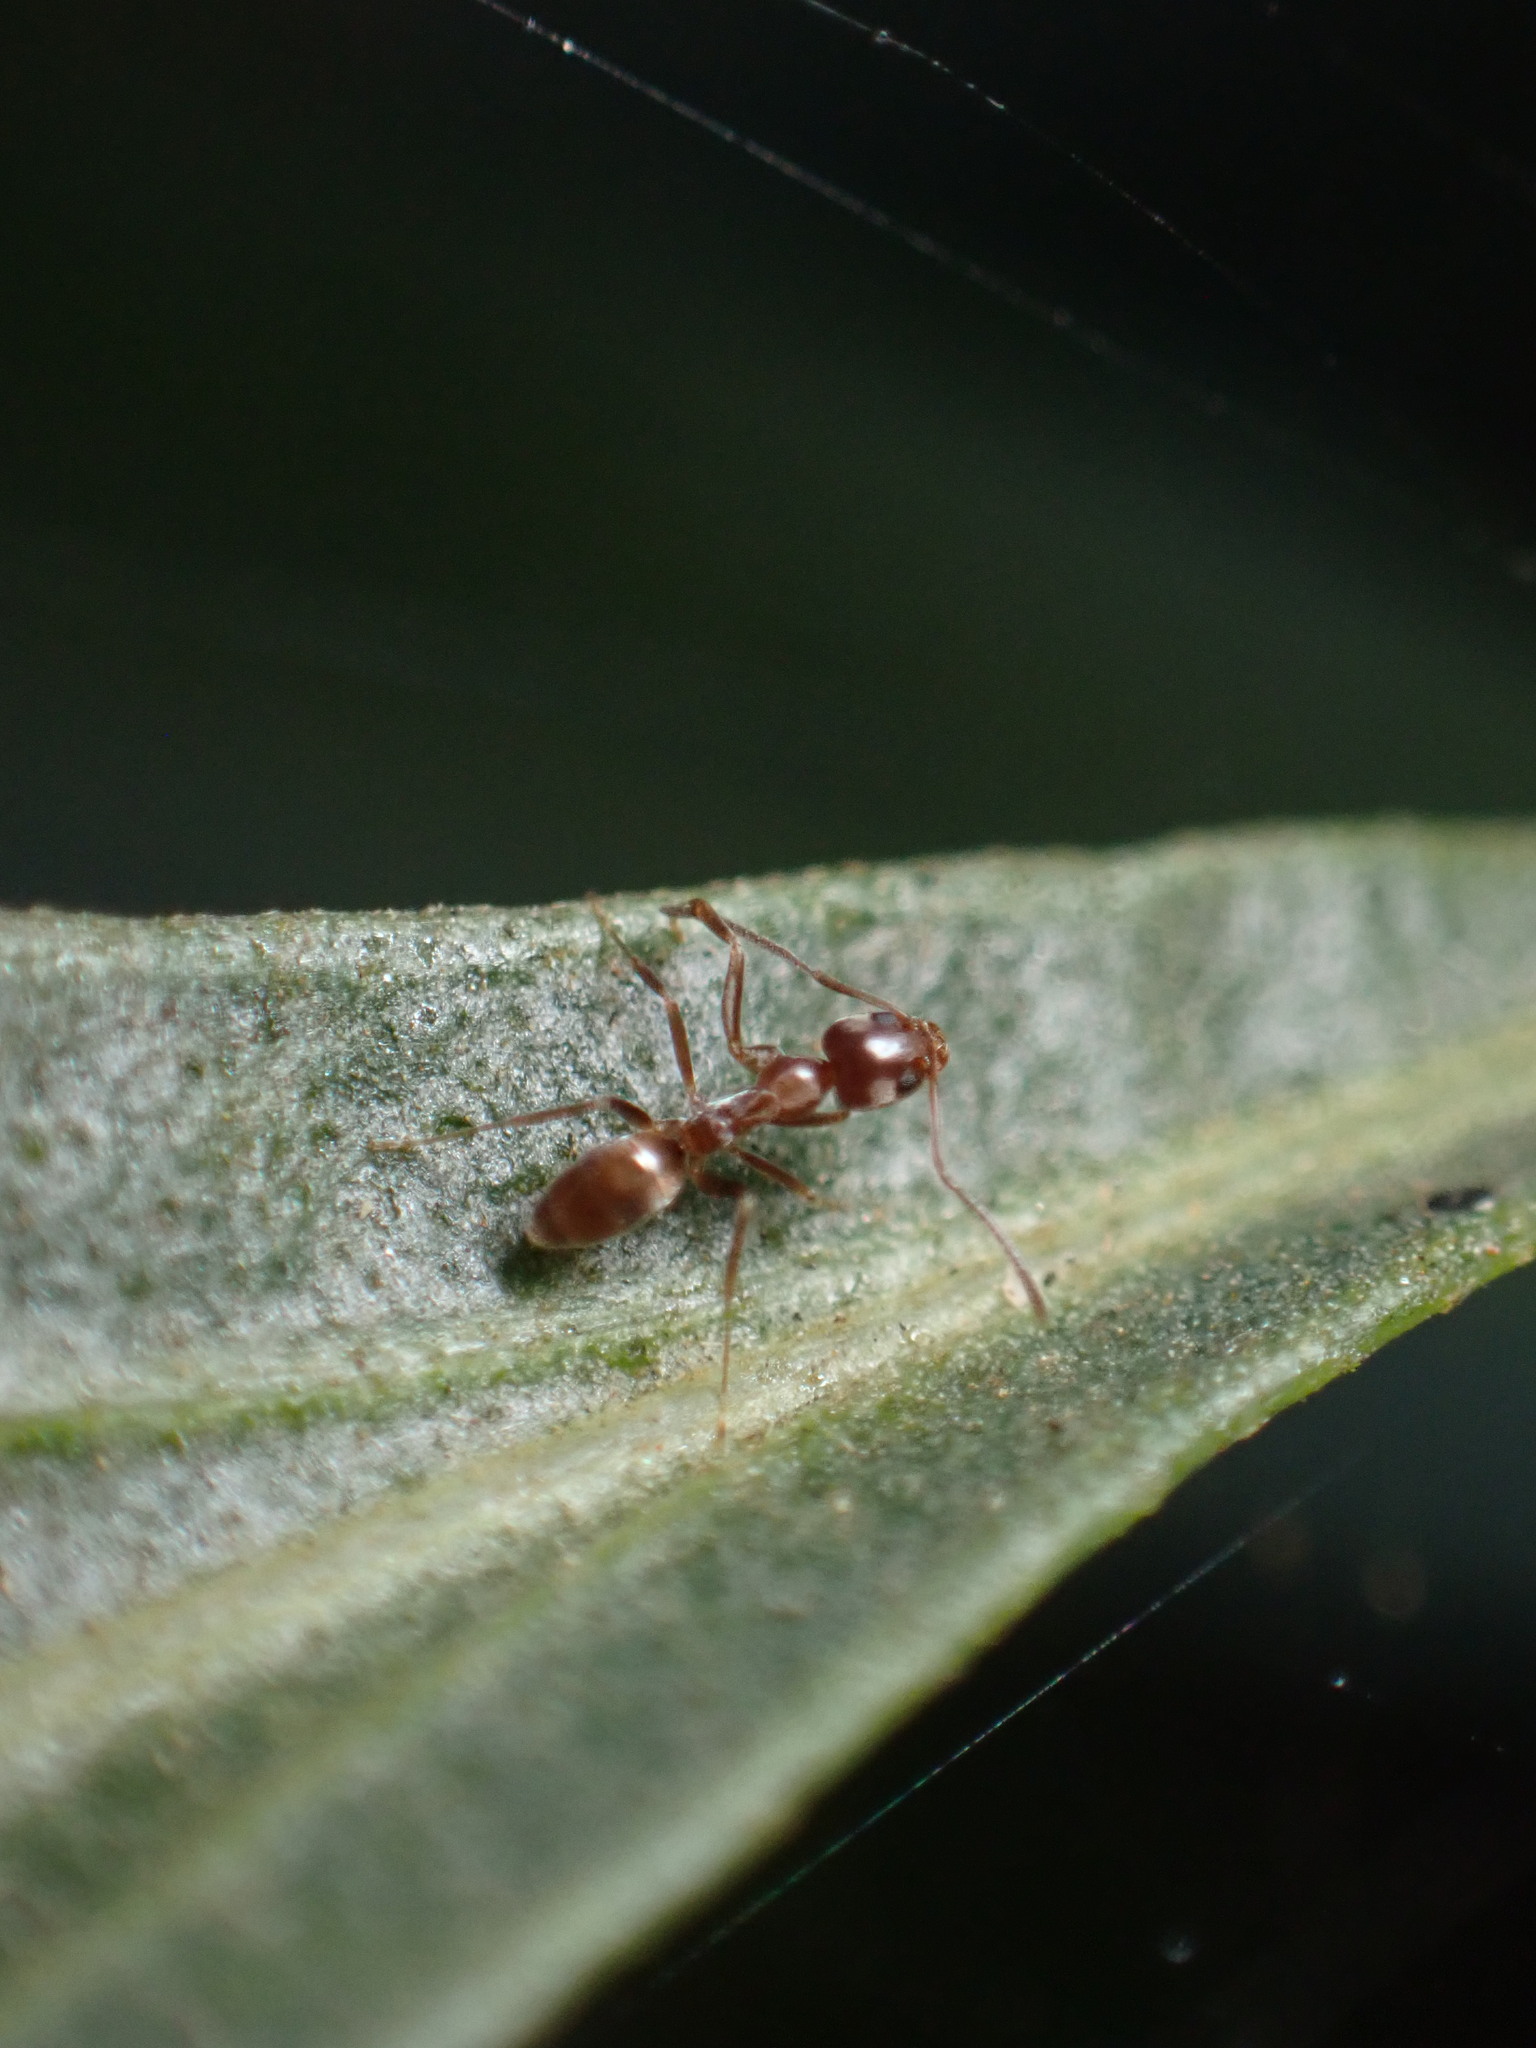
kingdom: Animalia
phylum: Arthropoda
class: Insecta
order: Hymenoptera
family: Formicidae
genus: Linepithema
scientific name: Linepithema humile
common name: Argentine ant
